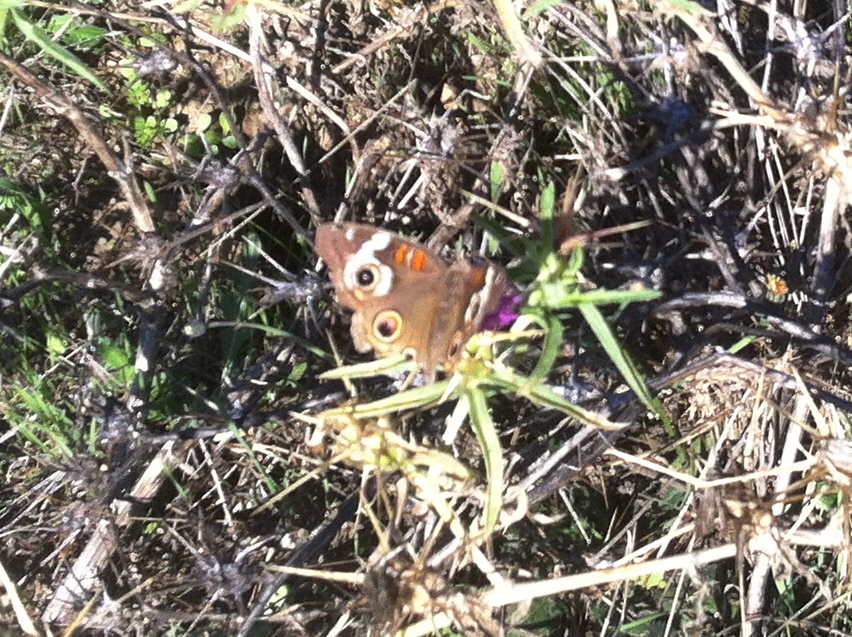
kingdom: Animalia
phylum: Arthropoda
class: Insecta
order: Lepidoptera
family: Nymphalidae
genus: Junonia
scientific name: Junonia grisea
